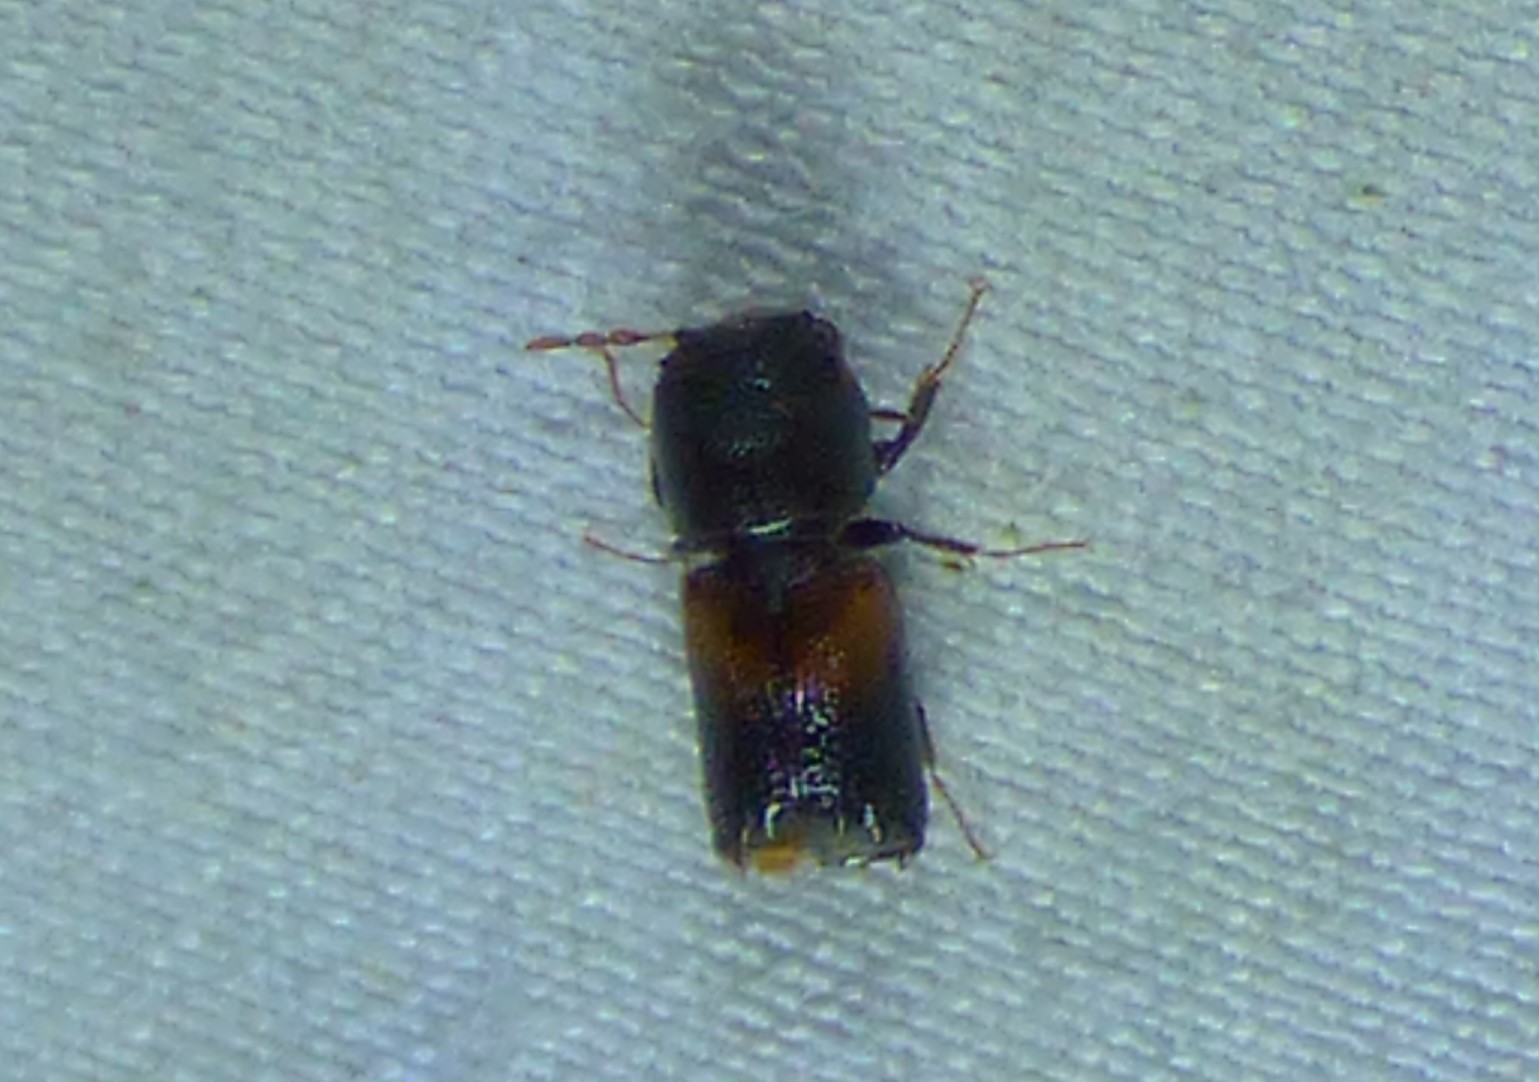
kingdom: Animalia
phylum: Arthropoda
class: Insecta
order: Coleoptera
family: Bostrichidae
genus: Xylobiops
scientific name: Xylobiops basilaris
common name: Red-shouldered bostrichid
